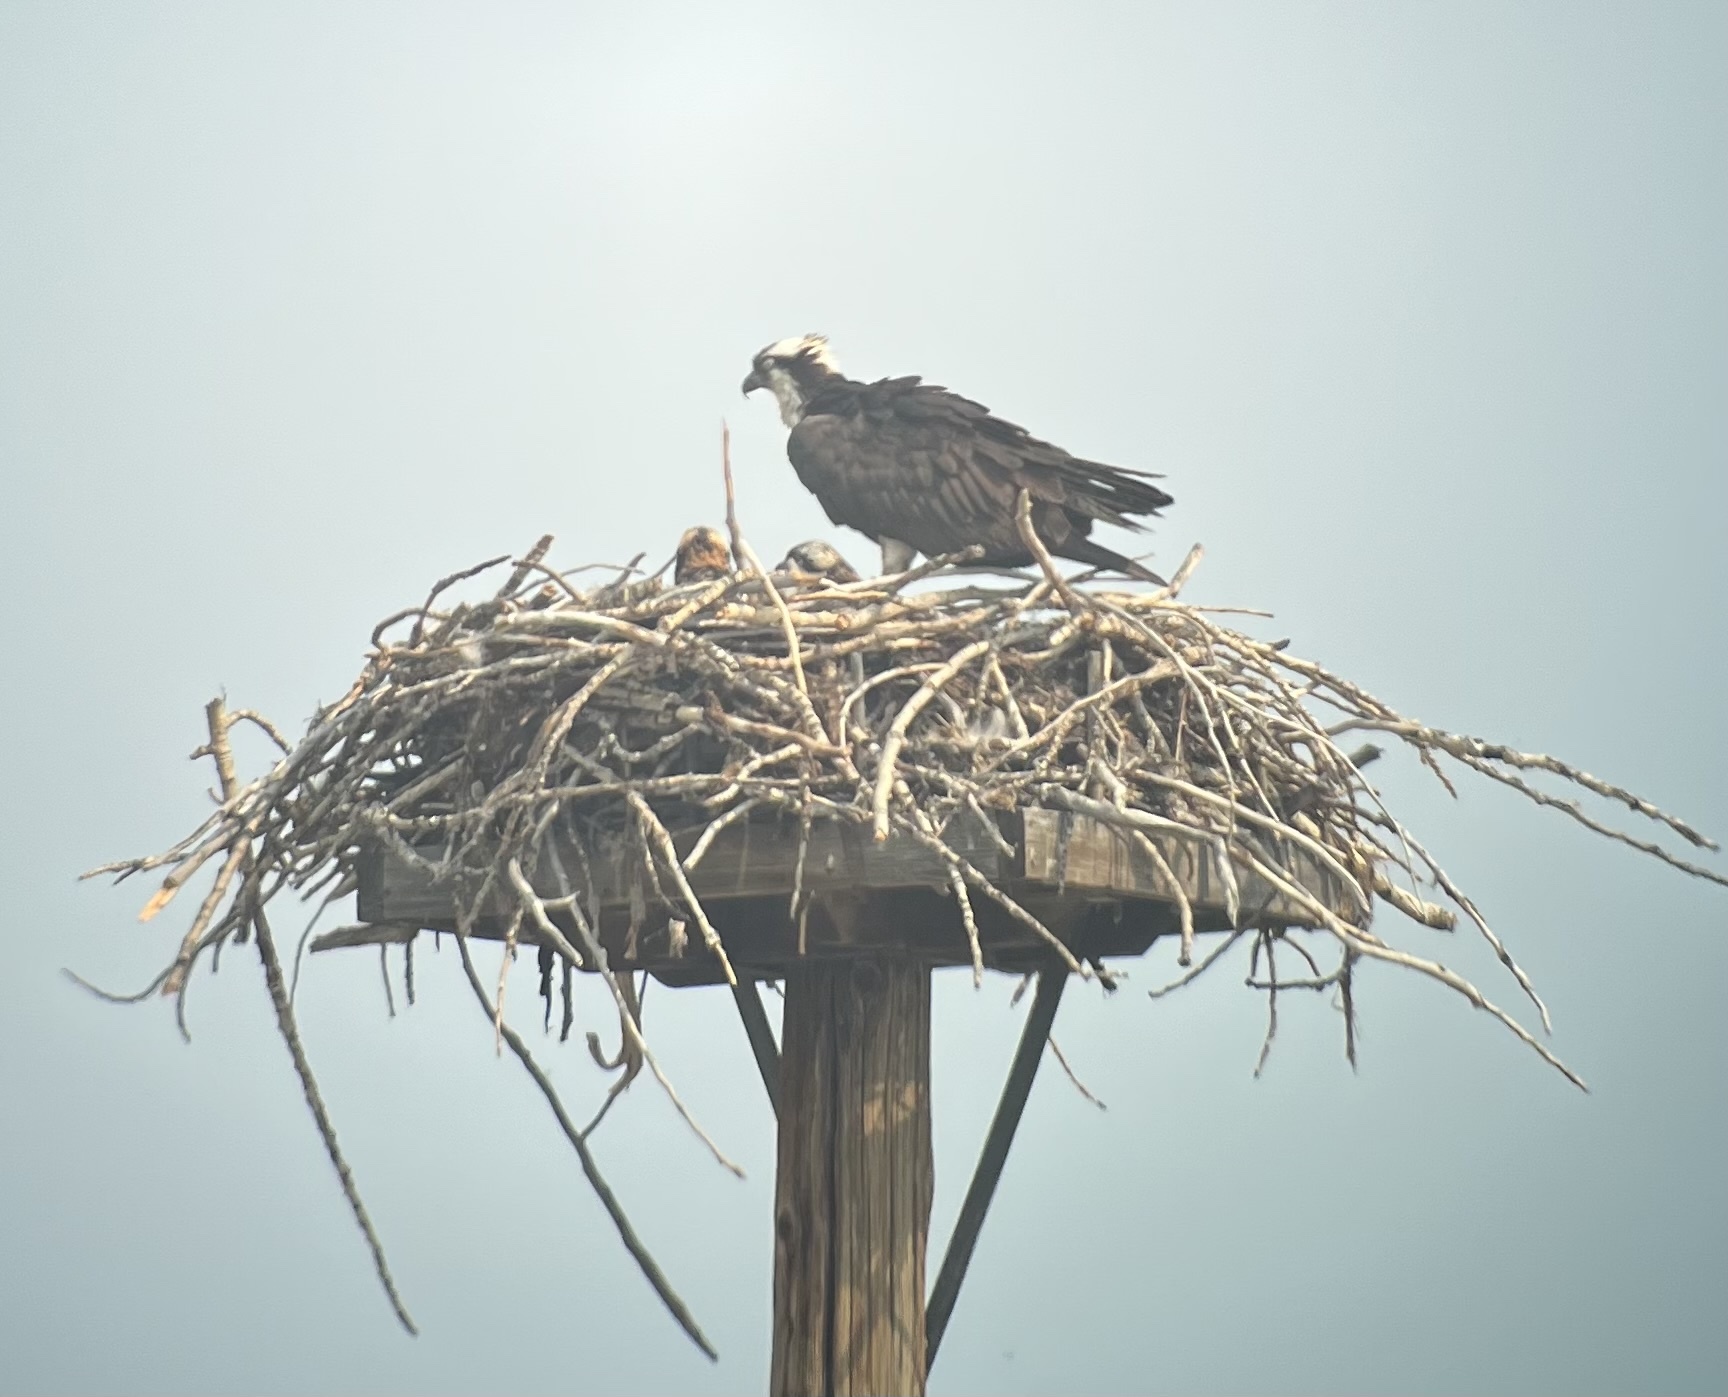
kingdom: Animalia
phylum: Chordata
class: Aves
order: Accipitriformes
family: Pandionidae
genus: Pandion
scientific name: Pandion haliaetus
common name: Osprey
